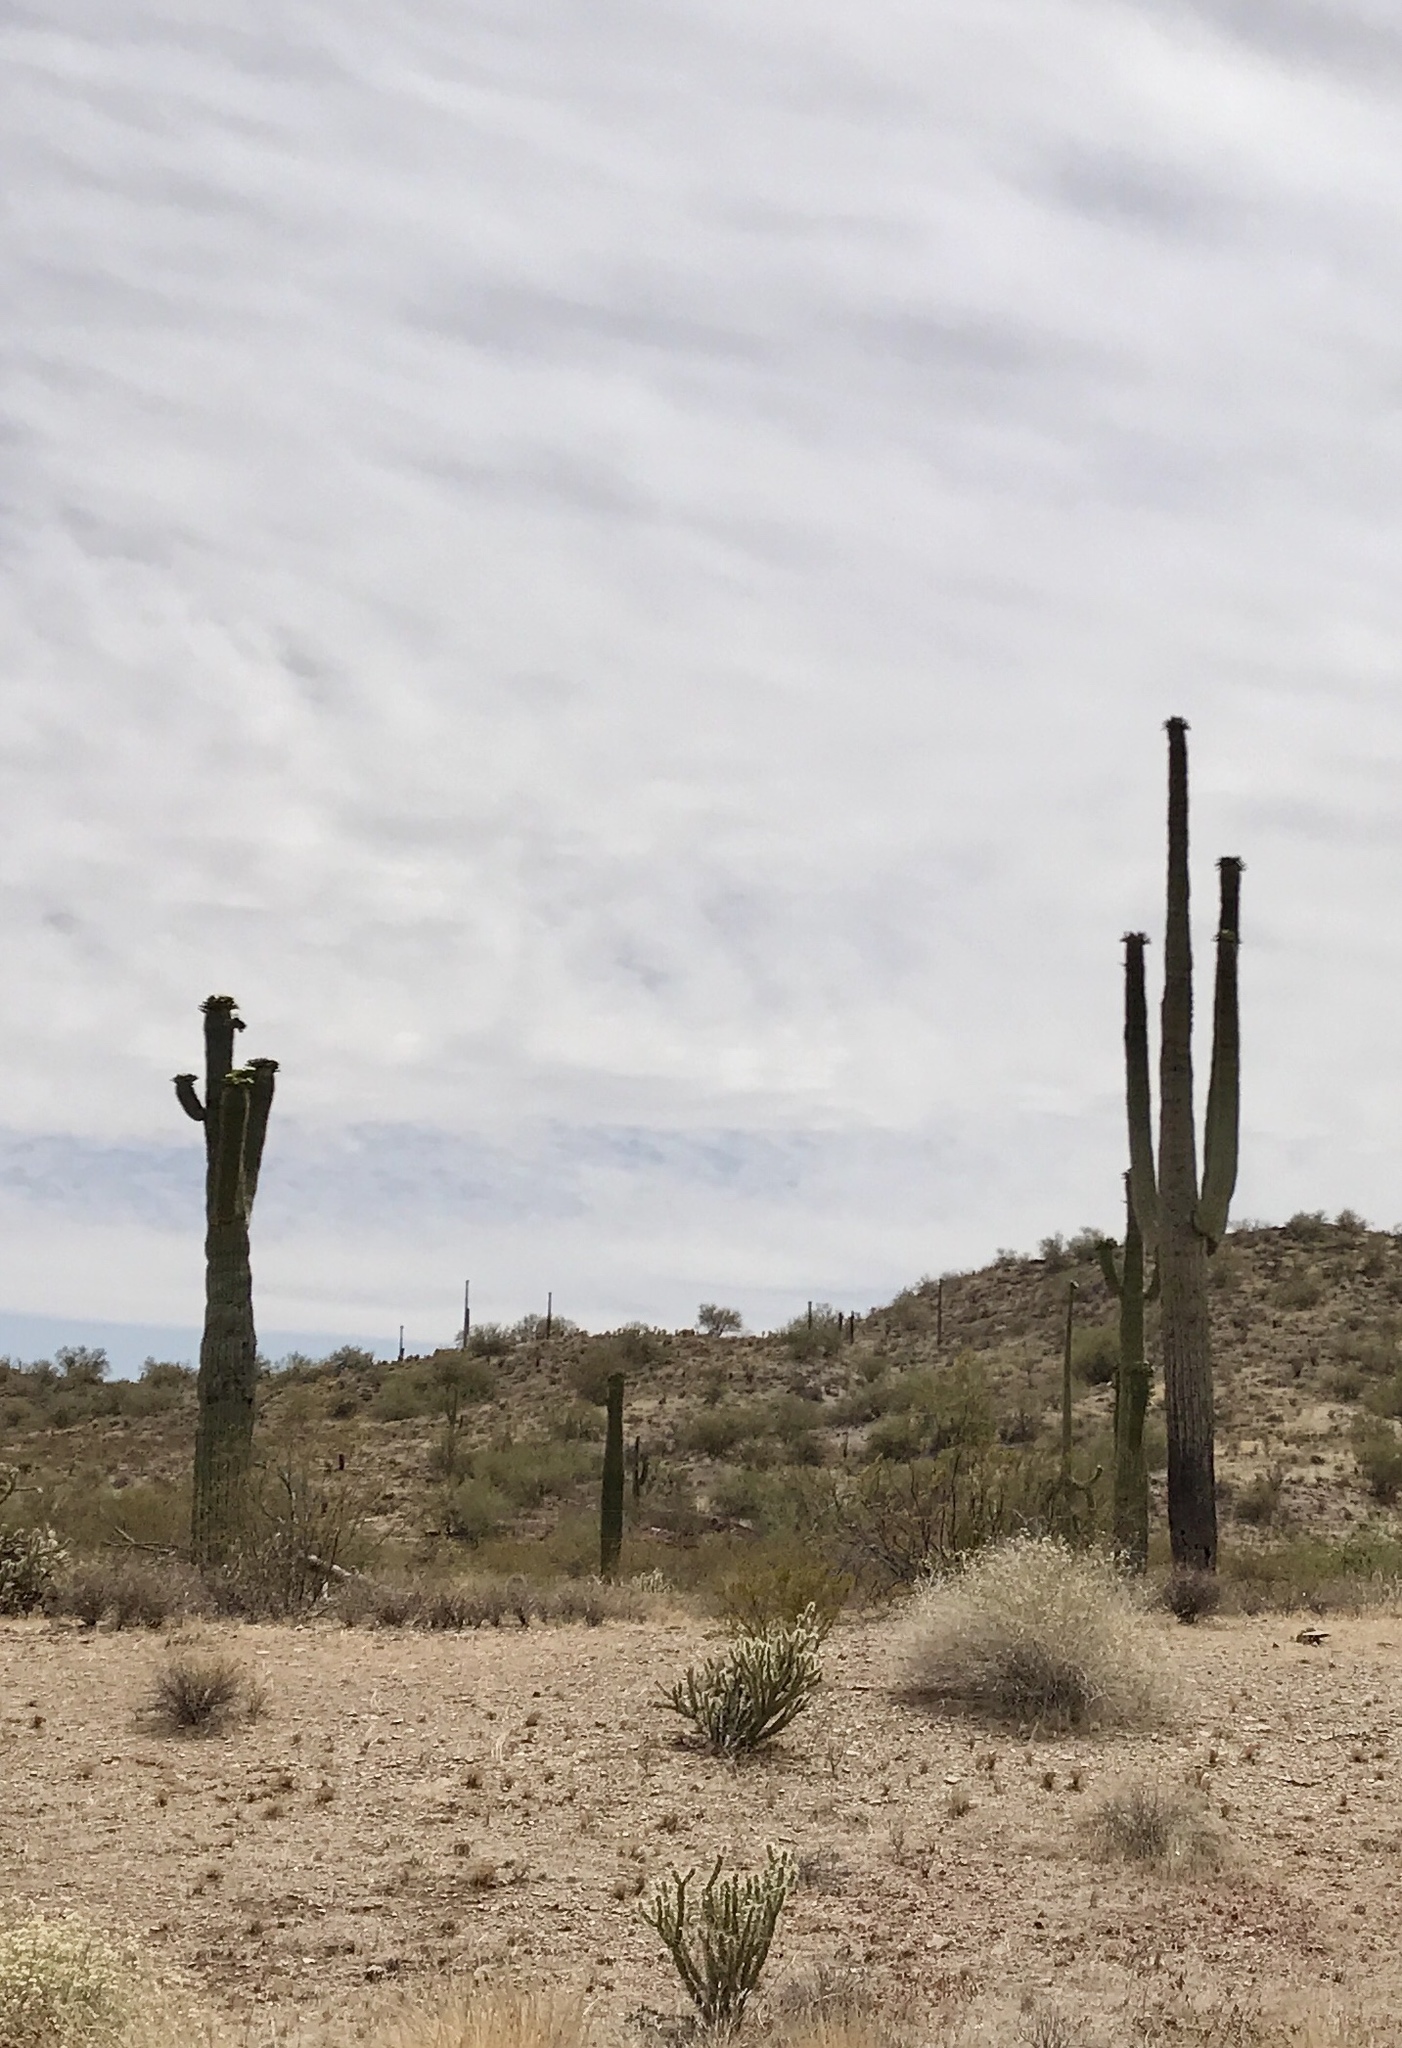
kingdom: Plantae
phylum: Tracheophyta
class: Magnoliopsida
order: Caryophyllales
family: Cactaceae
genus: Carnegiea
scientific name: Carnegiea gigantea
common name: Saguaro
